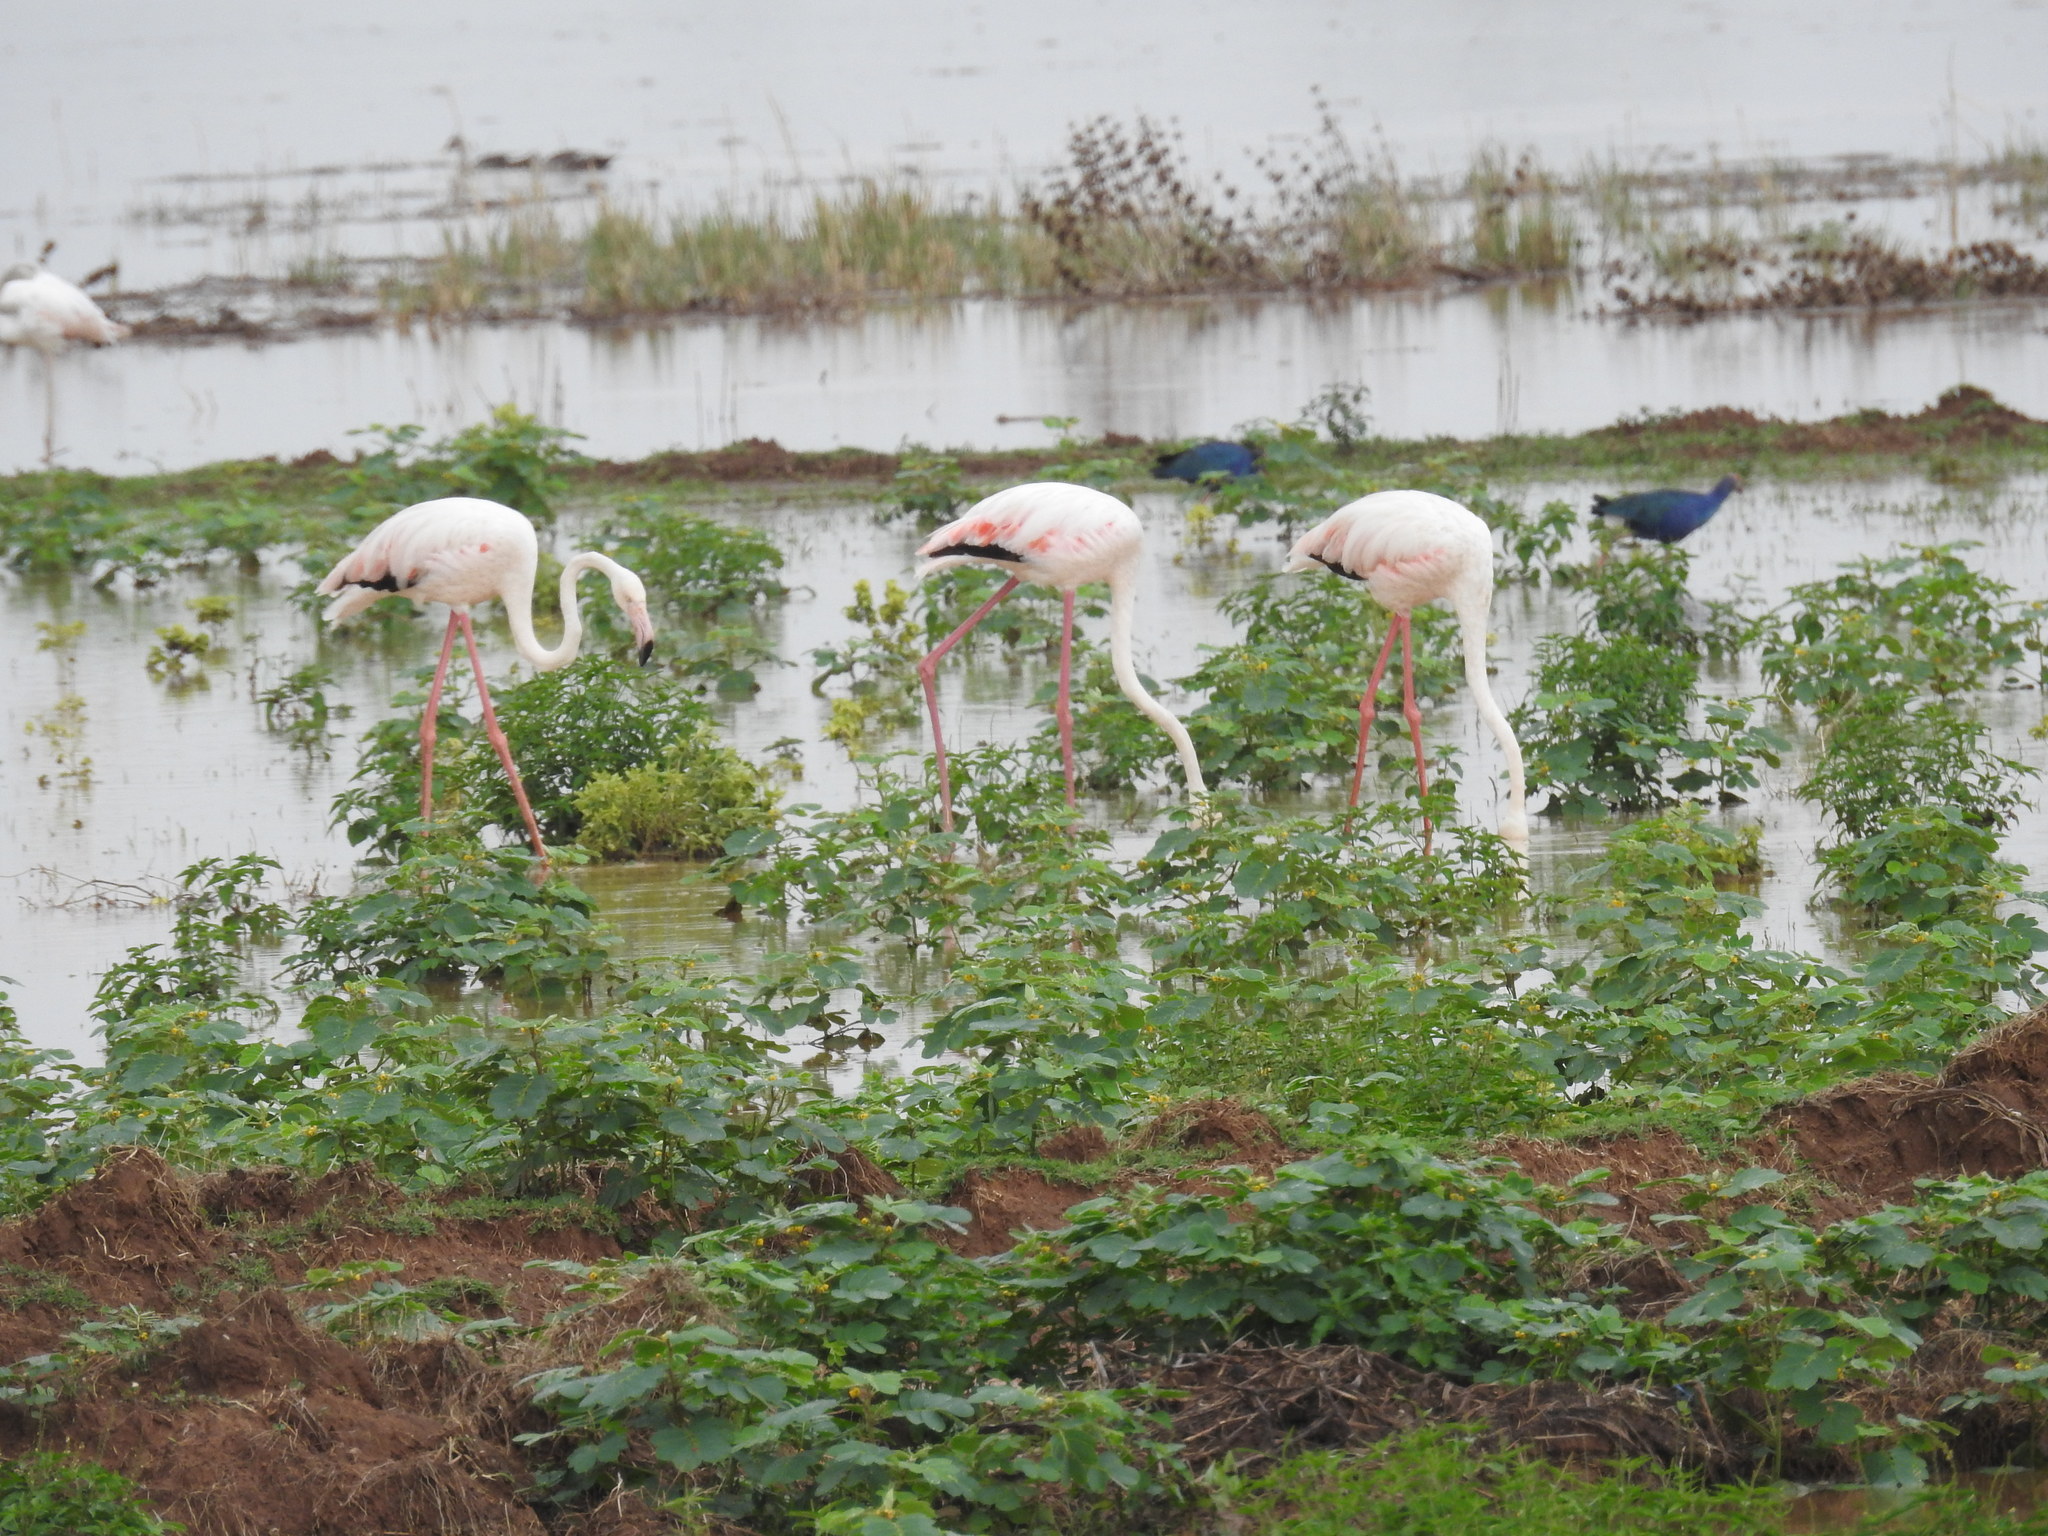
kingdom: Animalia
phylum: Chordata
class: Aves
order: Phoenicopteriformes
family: Phoenicopteridae
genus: Phoenicopterus
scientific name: Phoenicopterus roseus
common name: Greater flamingo
